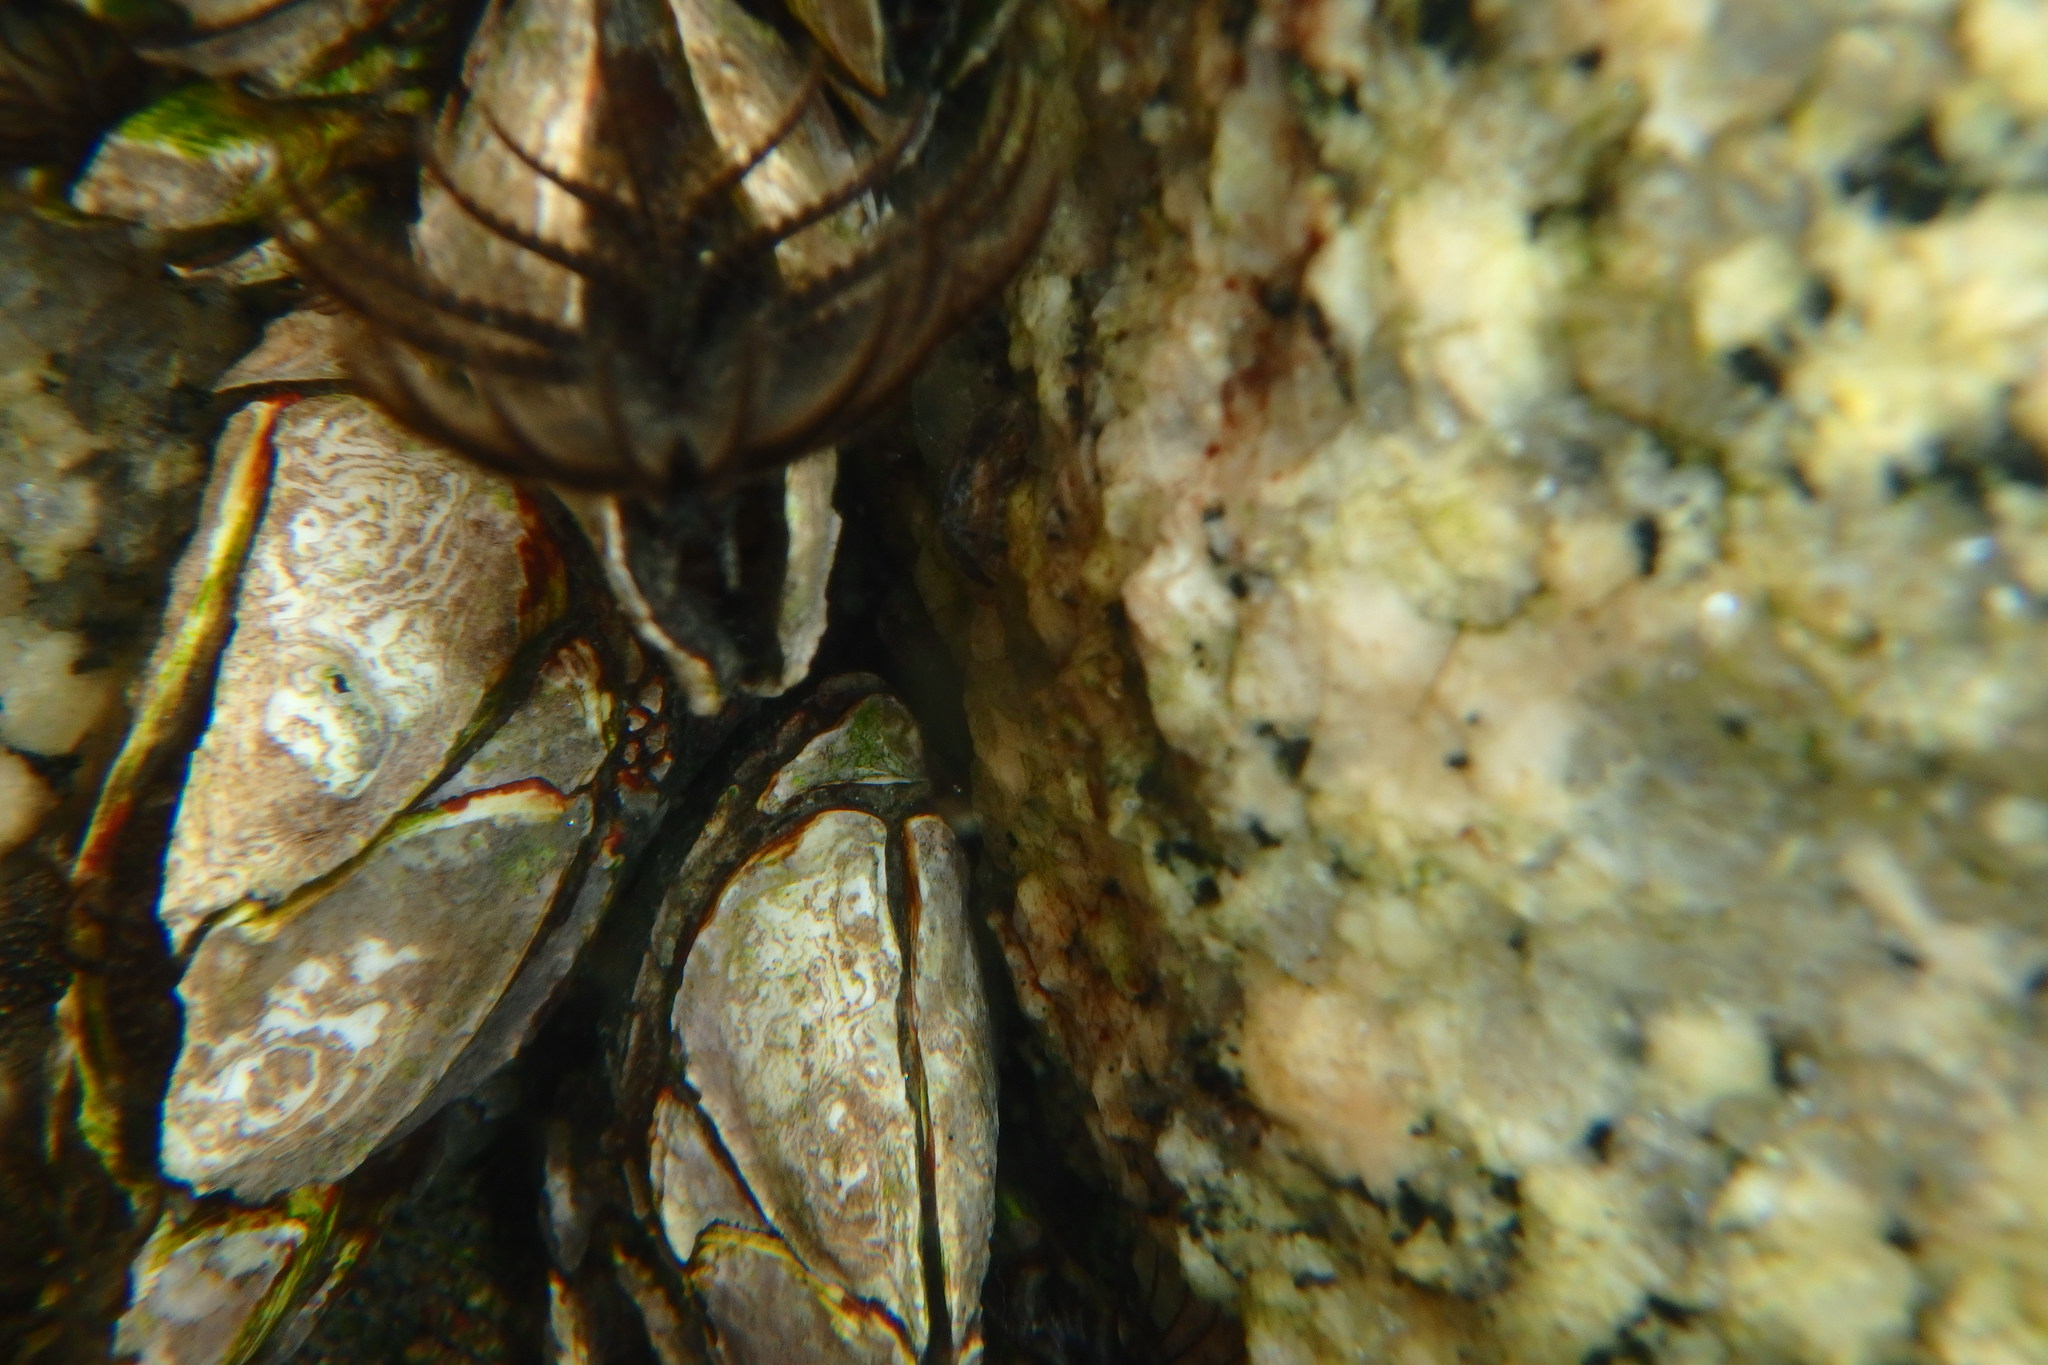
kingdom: Animalia
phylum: Arthropoda
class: Maxillopoda
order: Pedunculata
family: Pollicipedidae
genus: Capitulum
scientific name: Capitulum mitella
